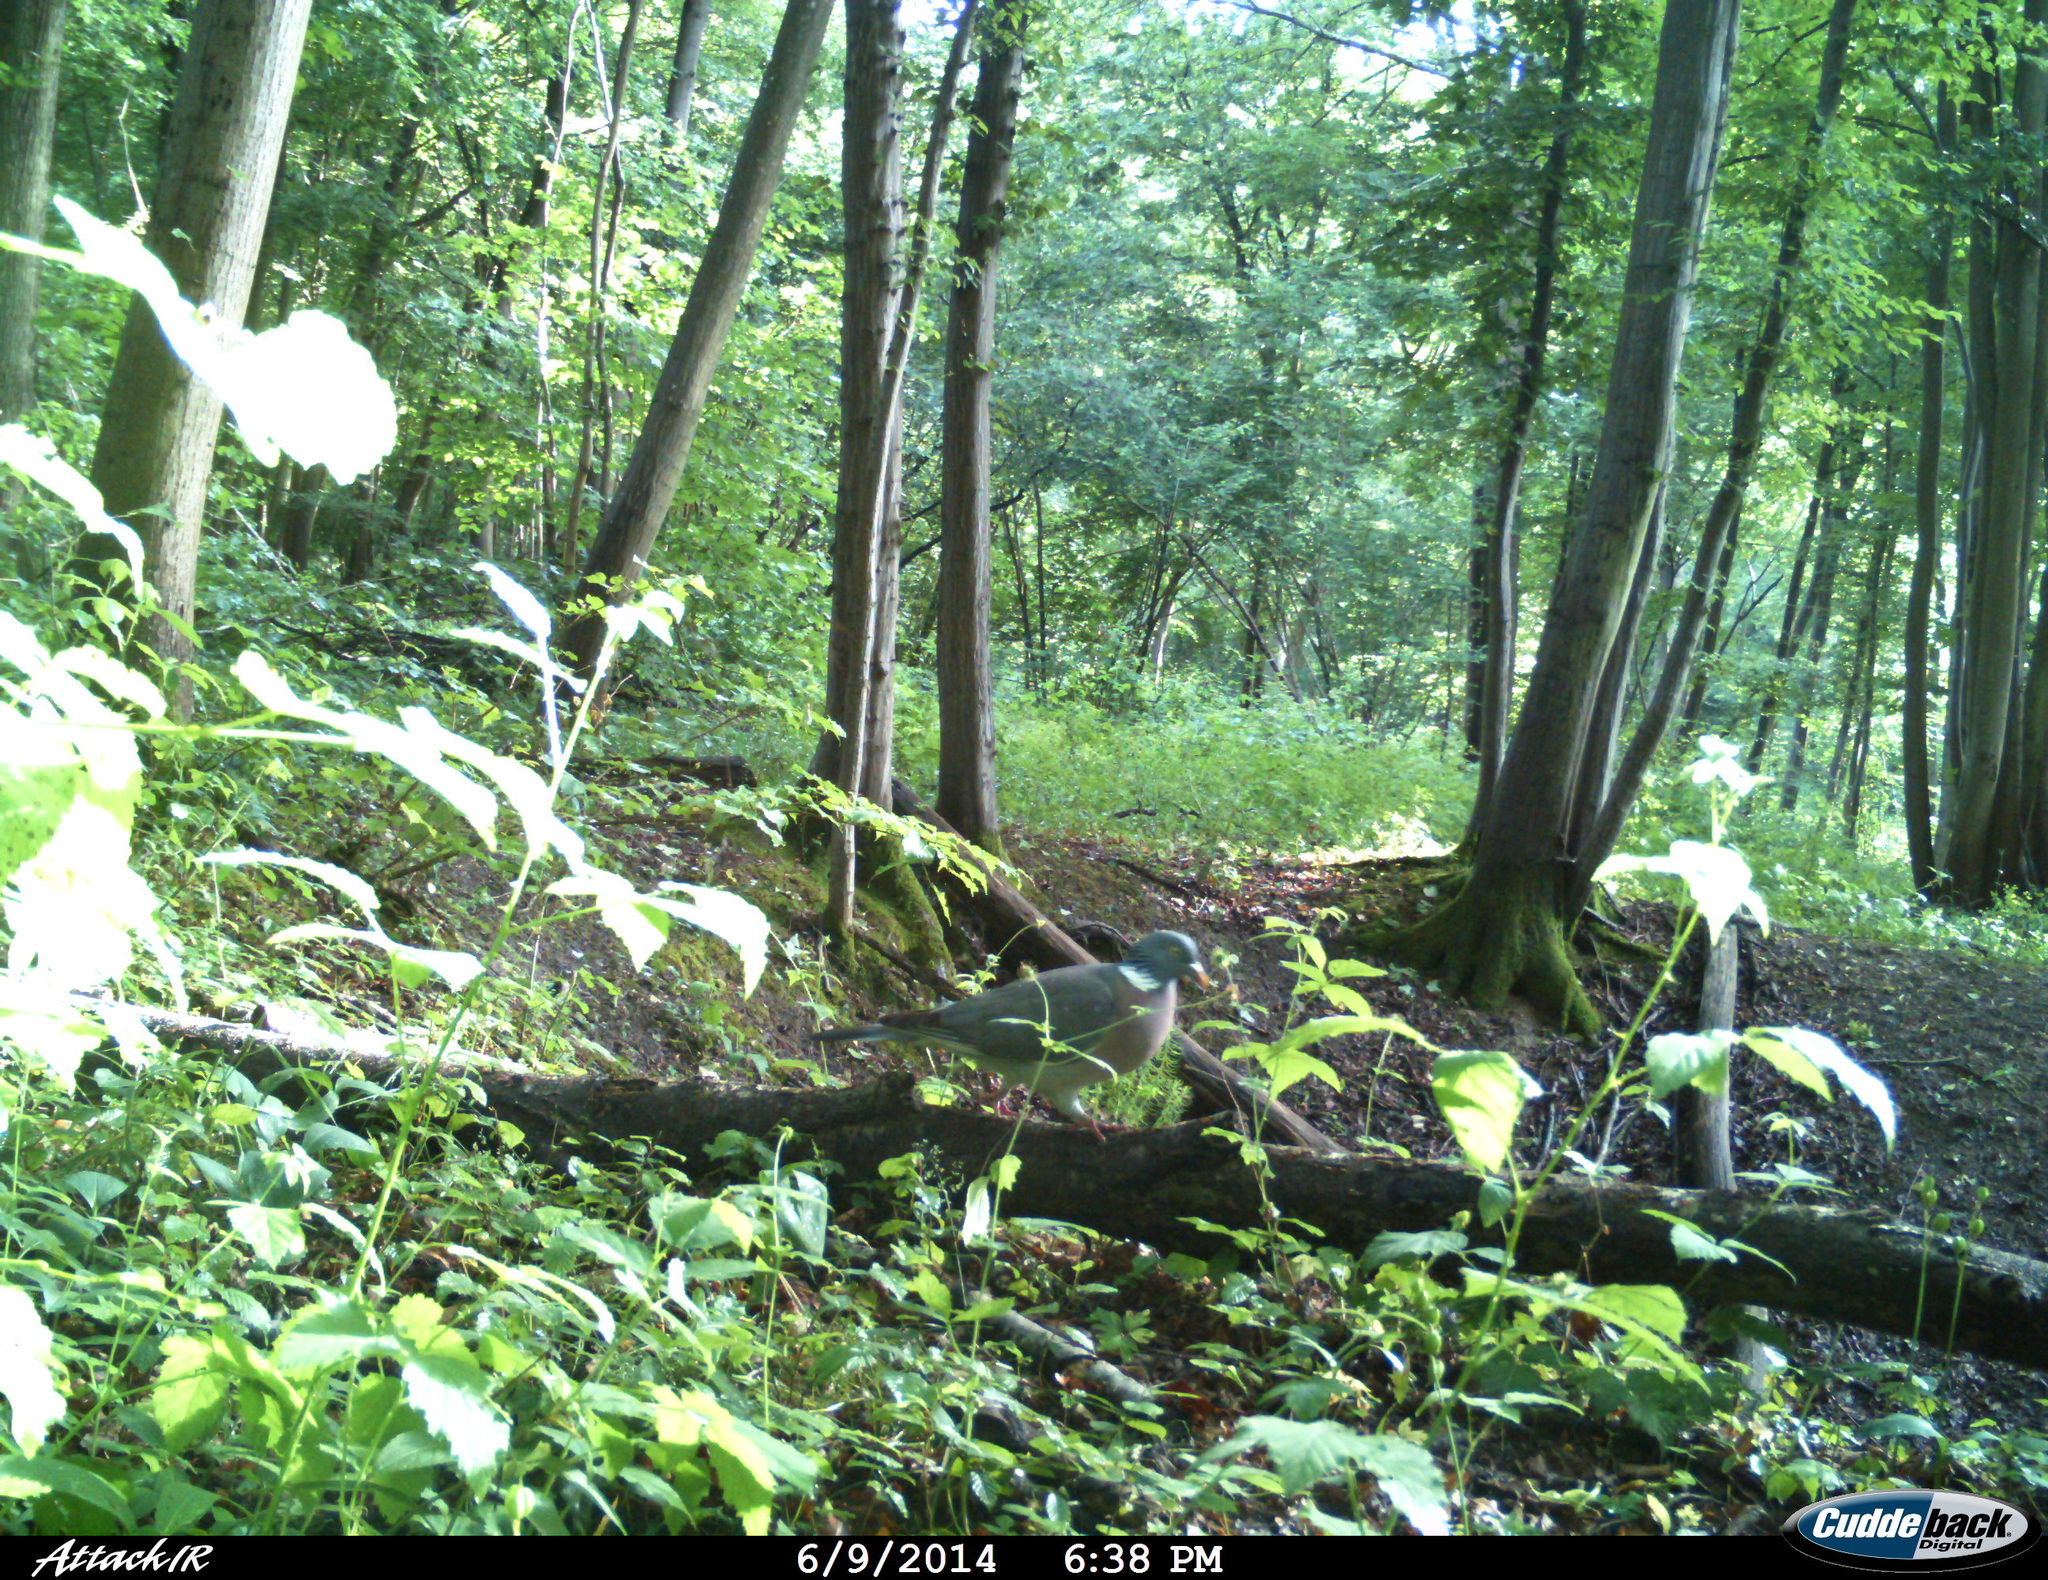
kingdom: Animalia
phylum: Chordata
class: Aves
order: Columbiformes
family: Columbidae
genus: Columba
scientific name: Columba palumbus
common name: Common wood pigeon
